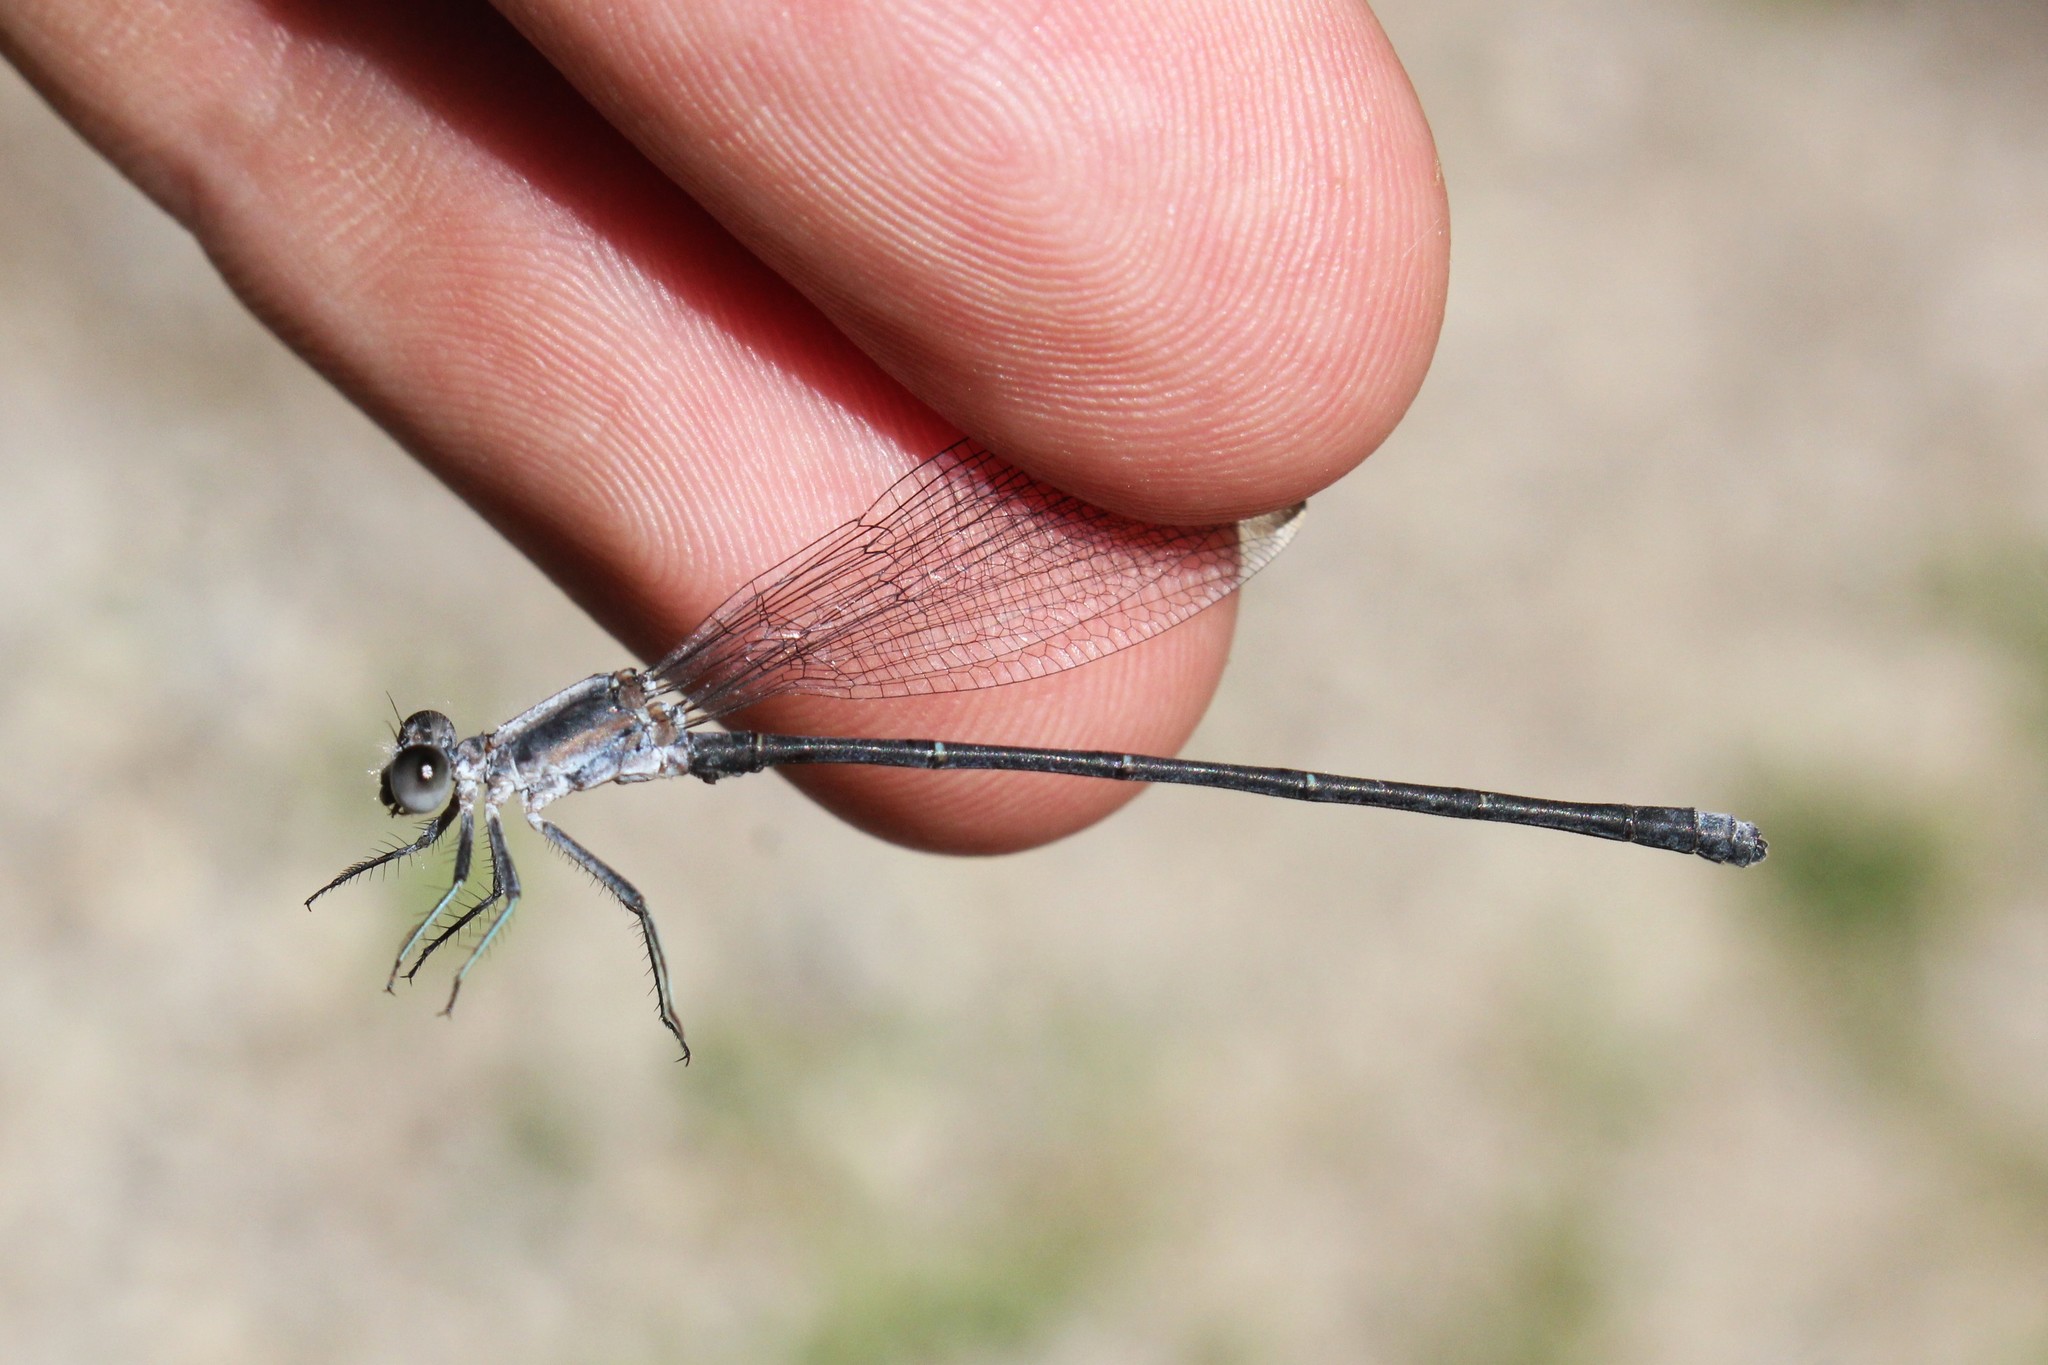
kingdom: Animalia
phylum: Arthropoda
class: Insecta
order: Odonata
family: Coenagrionidae
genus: Argia
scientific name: Argia moesta
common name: Powdered dancer
